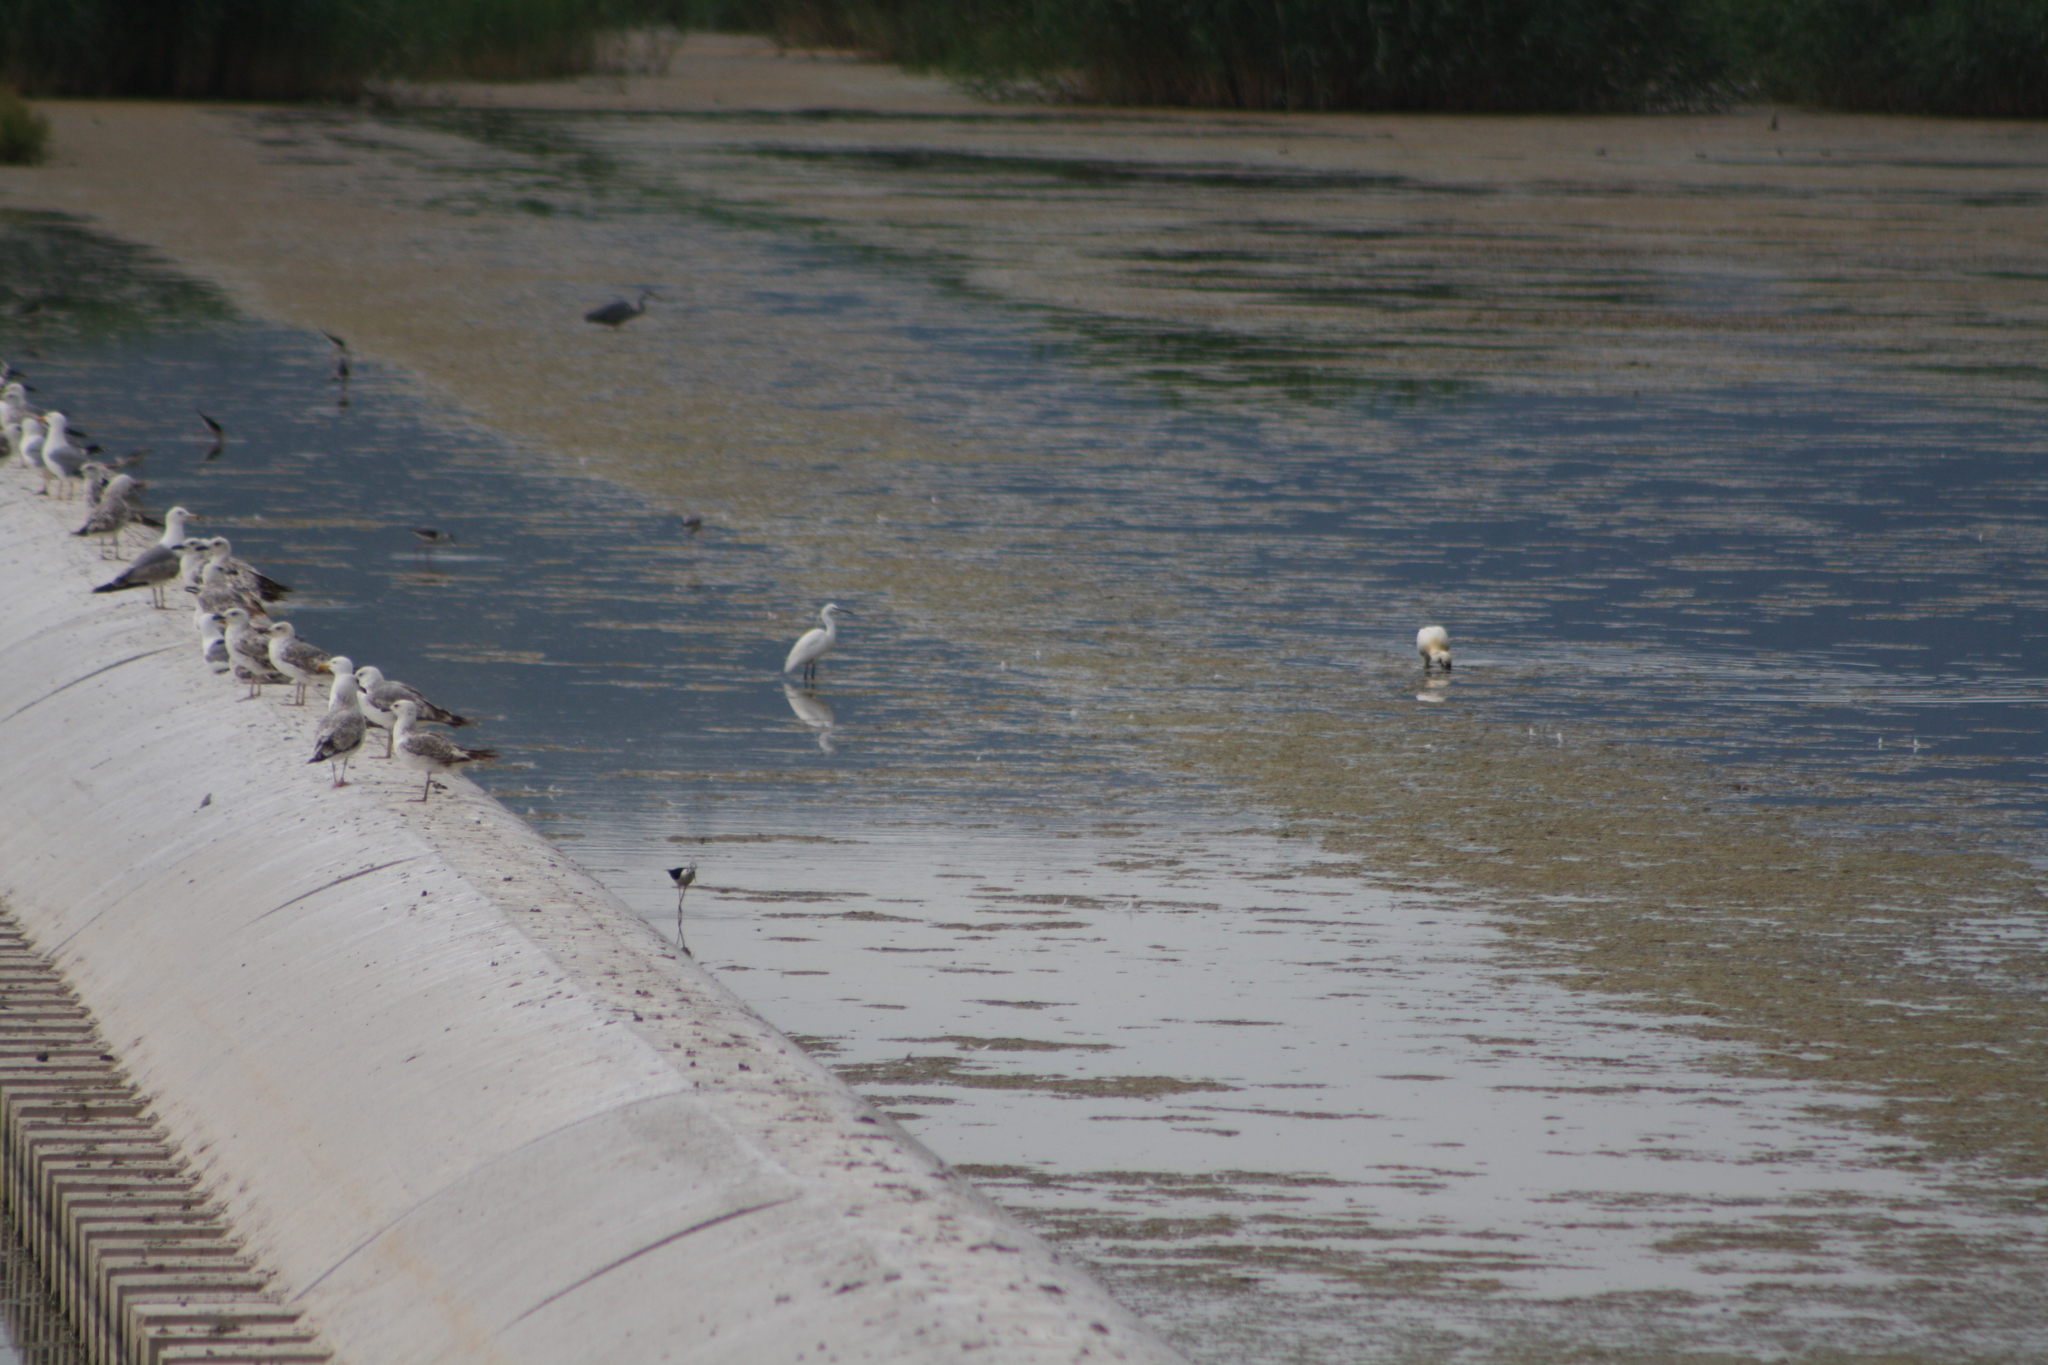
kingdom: Animalia
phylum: Chordata
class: Aves
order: Pelecaniformes
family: Threskiornithidae
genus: Platalea
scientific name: Platalea leucorodia
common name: Eurasian spoonbill
